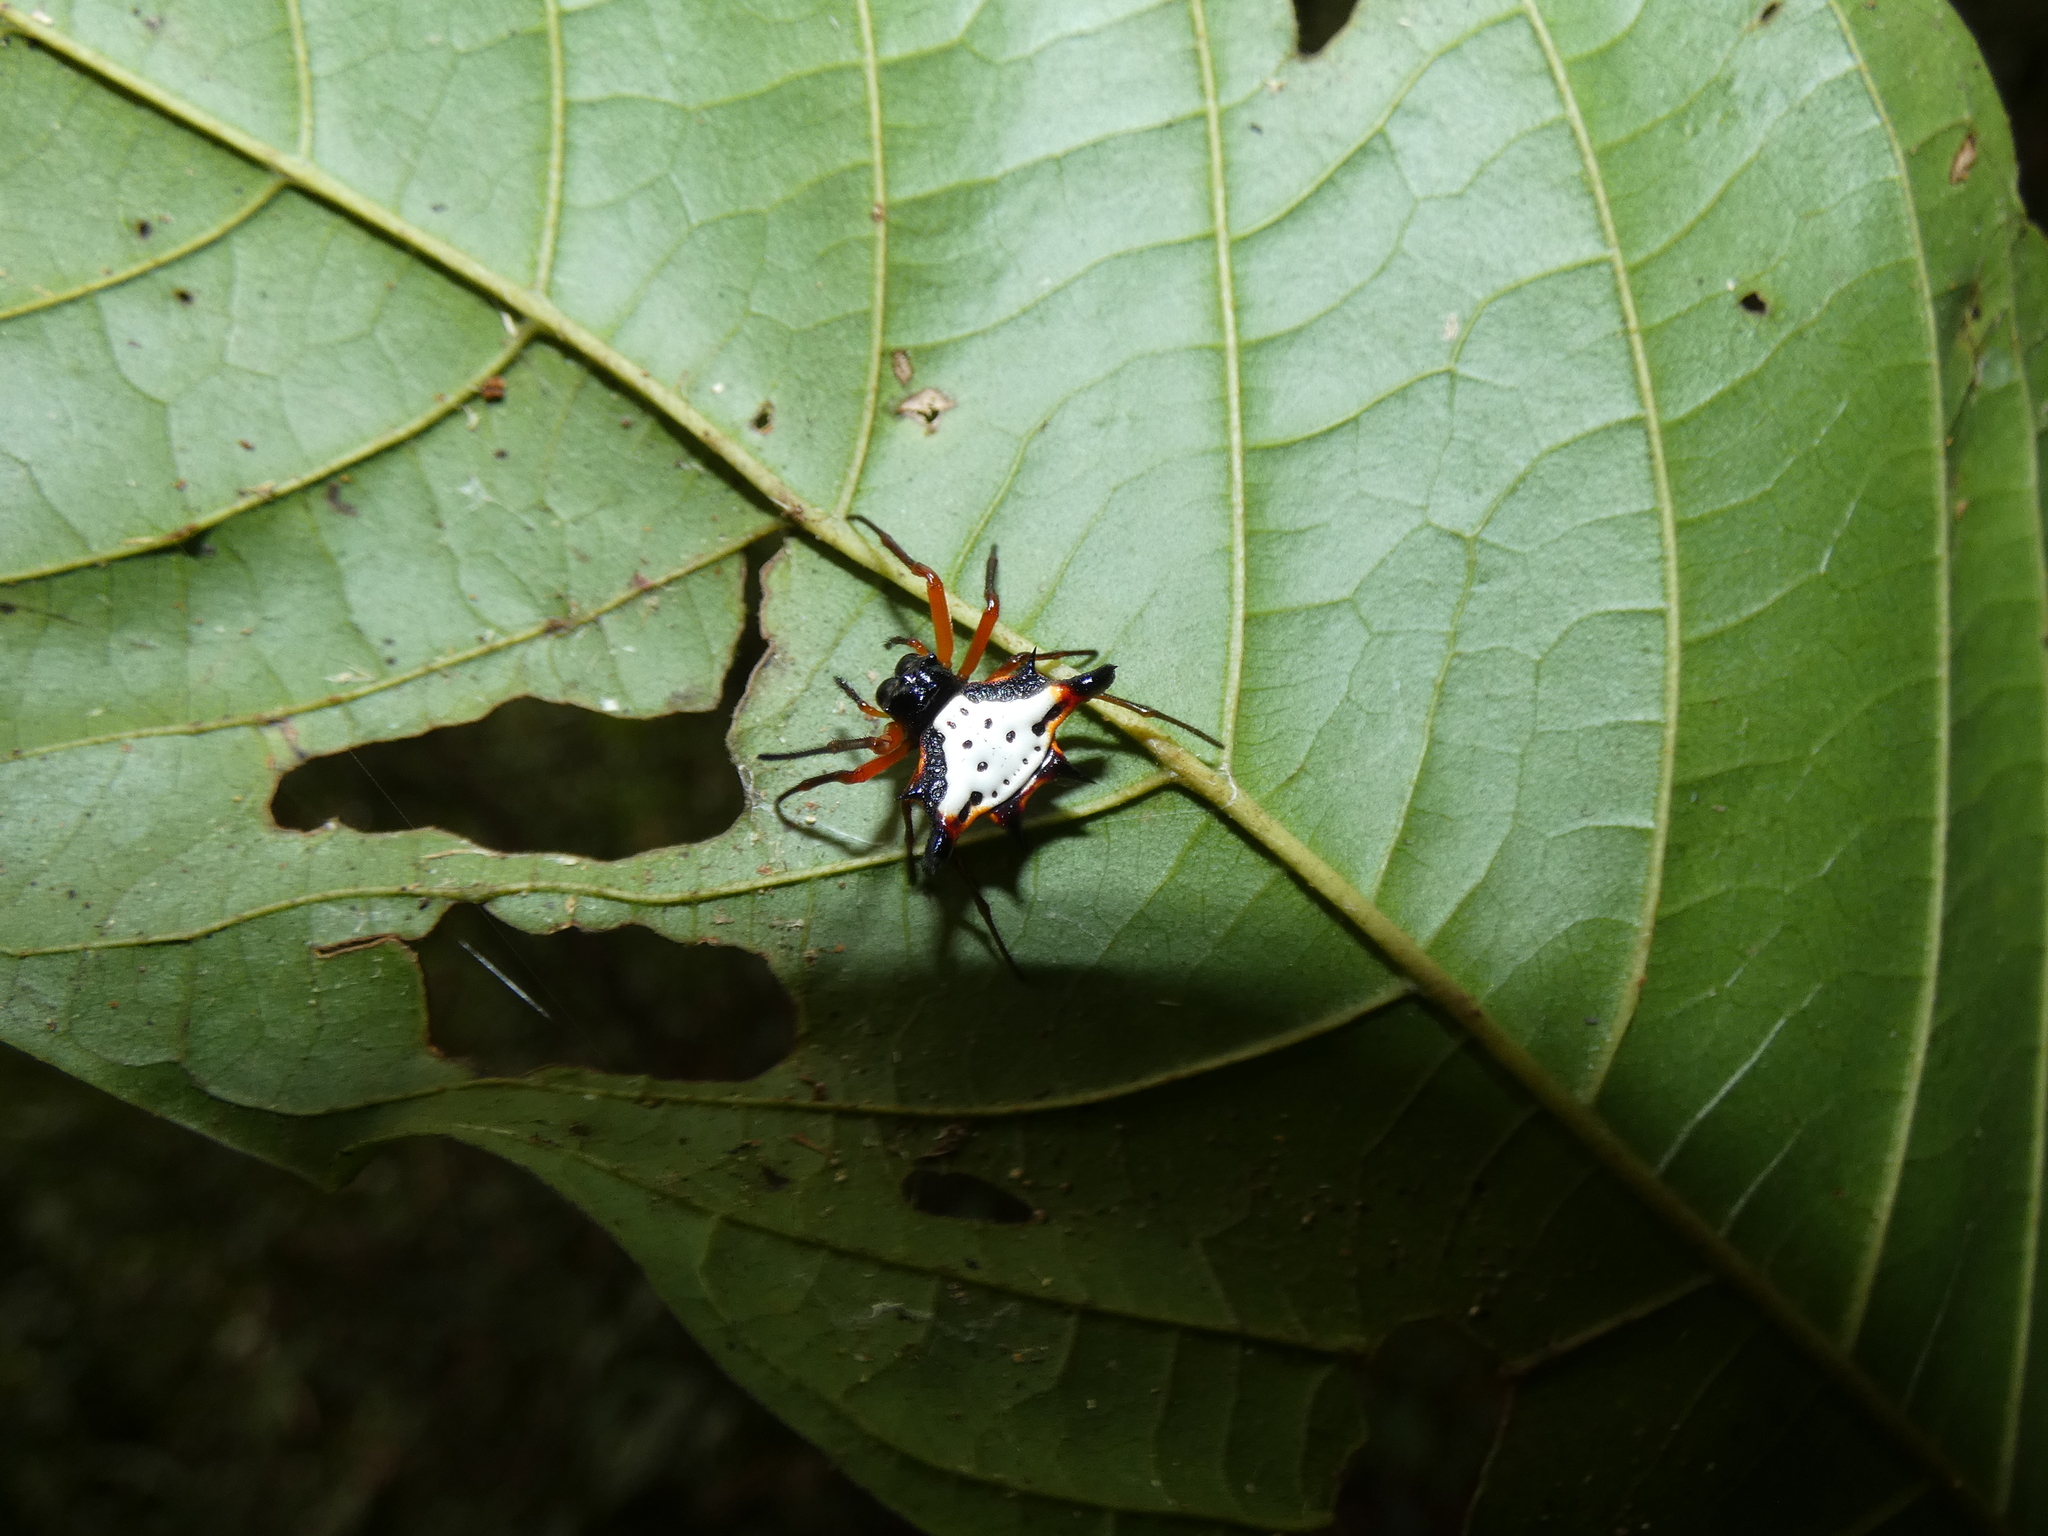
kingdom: Animalia
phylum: Arthropoda
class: Arachnida
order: Araneae
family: Araneidae
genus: Gasteracantha
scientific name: Gasteracantha crucigera
